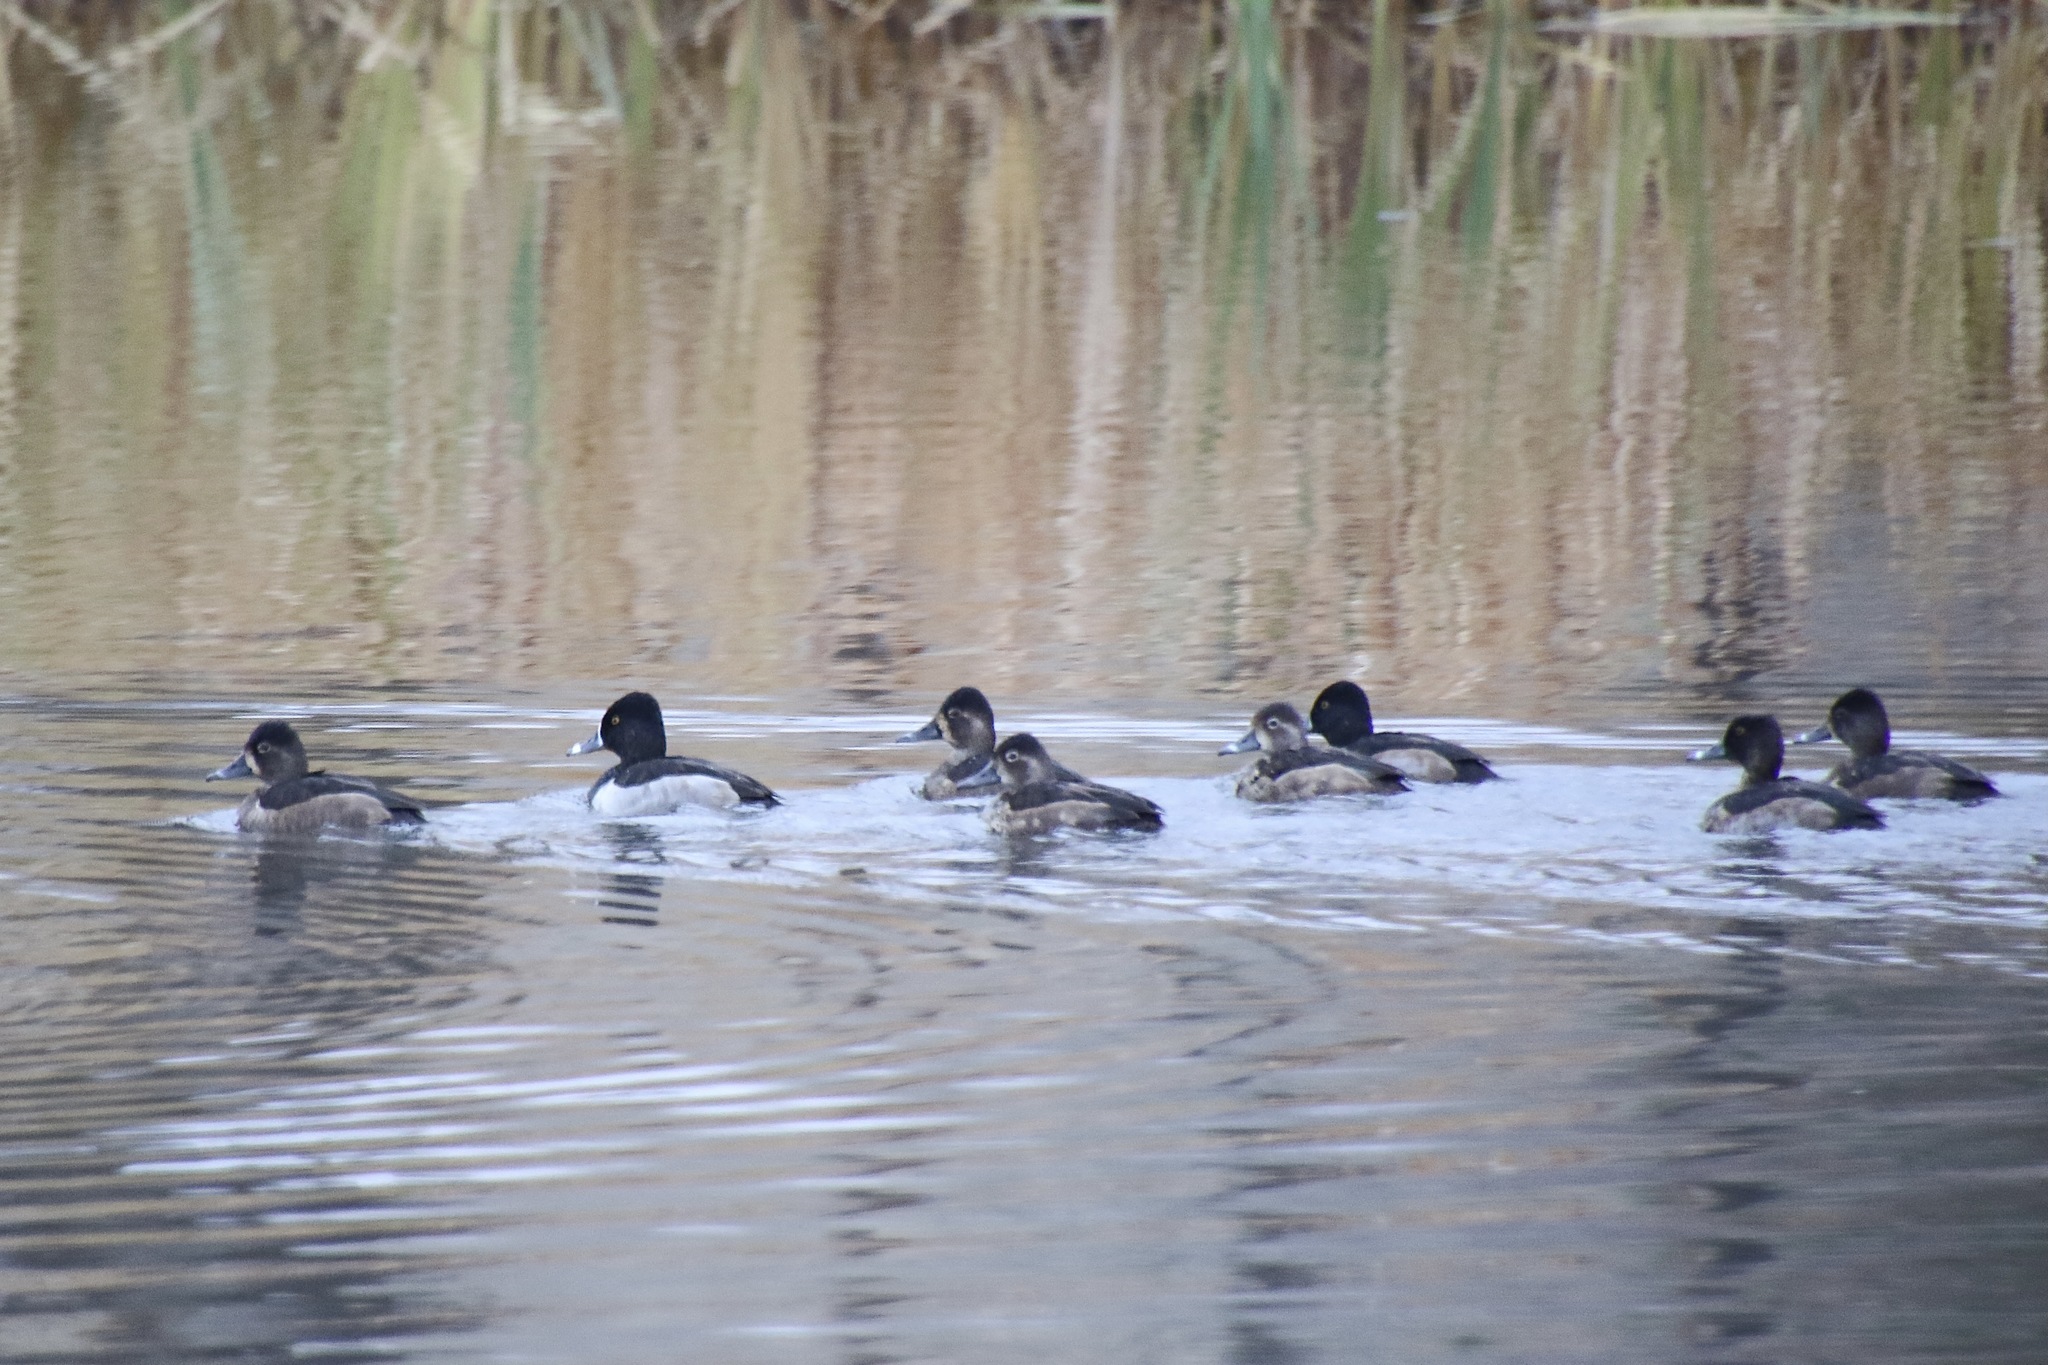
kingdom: Animalia
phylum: Chordata
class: Aves
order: Anseriformes
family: Anatidae
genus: Aythya
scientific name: Aythya collaris
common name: Ring-necked duck
